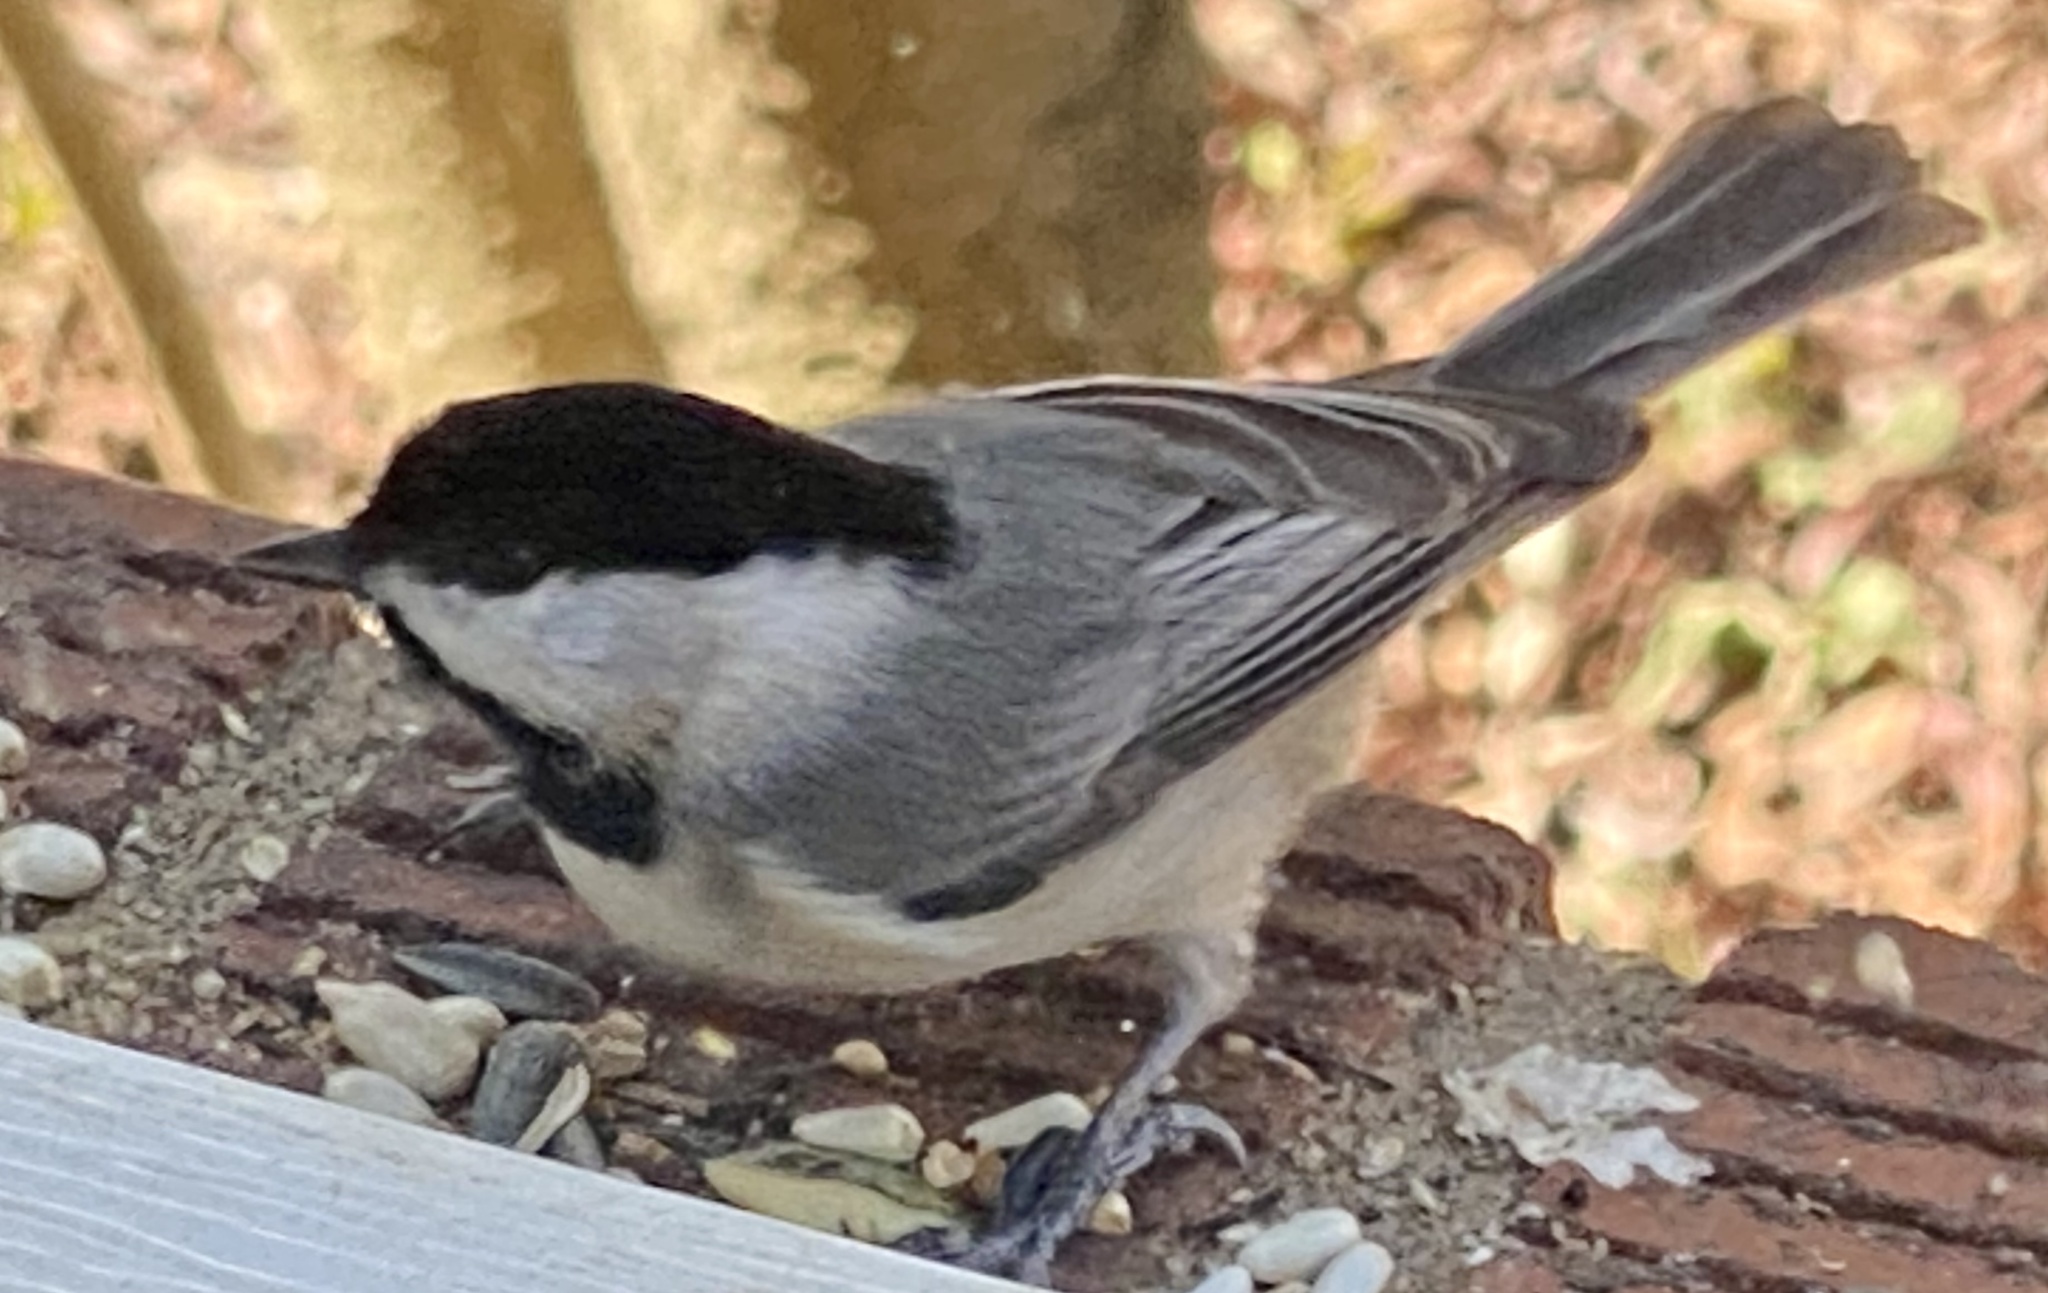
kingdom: Animalia
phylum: Chordata
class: Aves
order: Passeriformes
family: Paridae
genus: Poecile
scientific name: Poecile carolinensis
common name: Carolina chickadee
